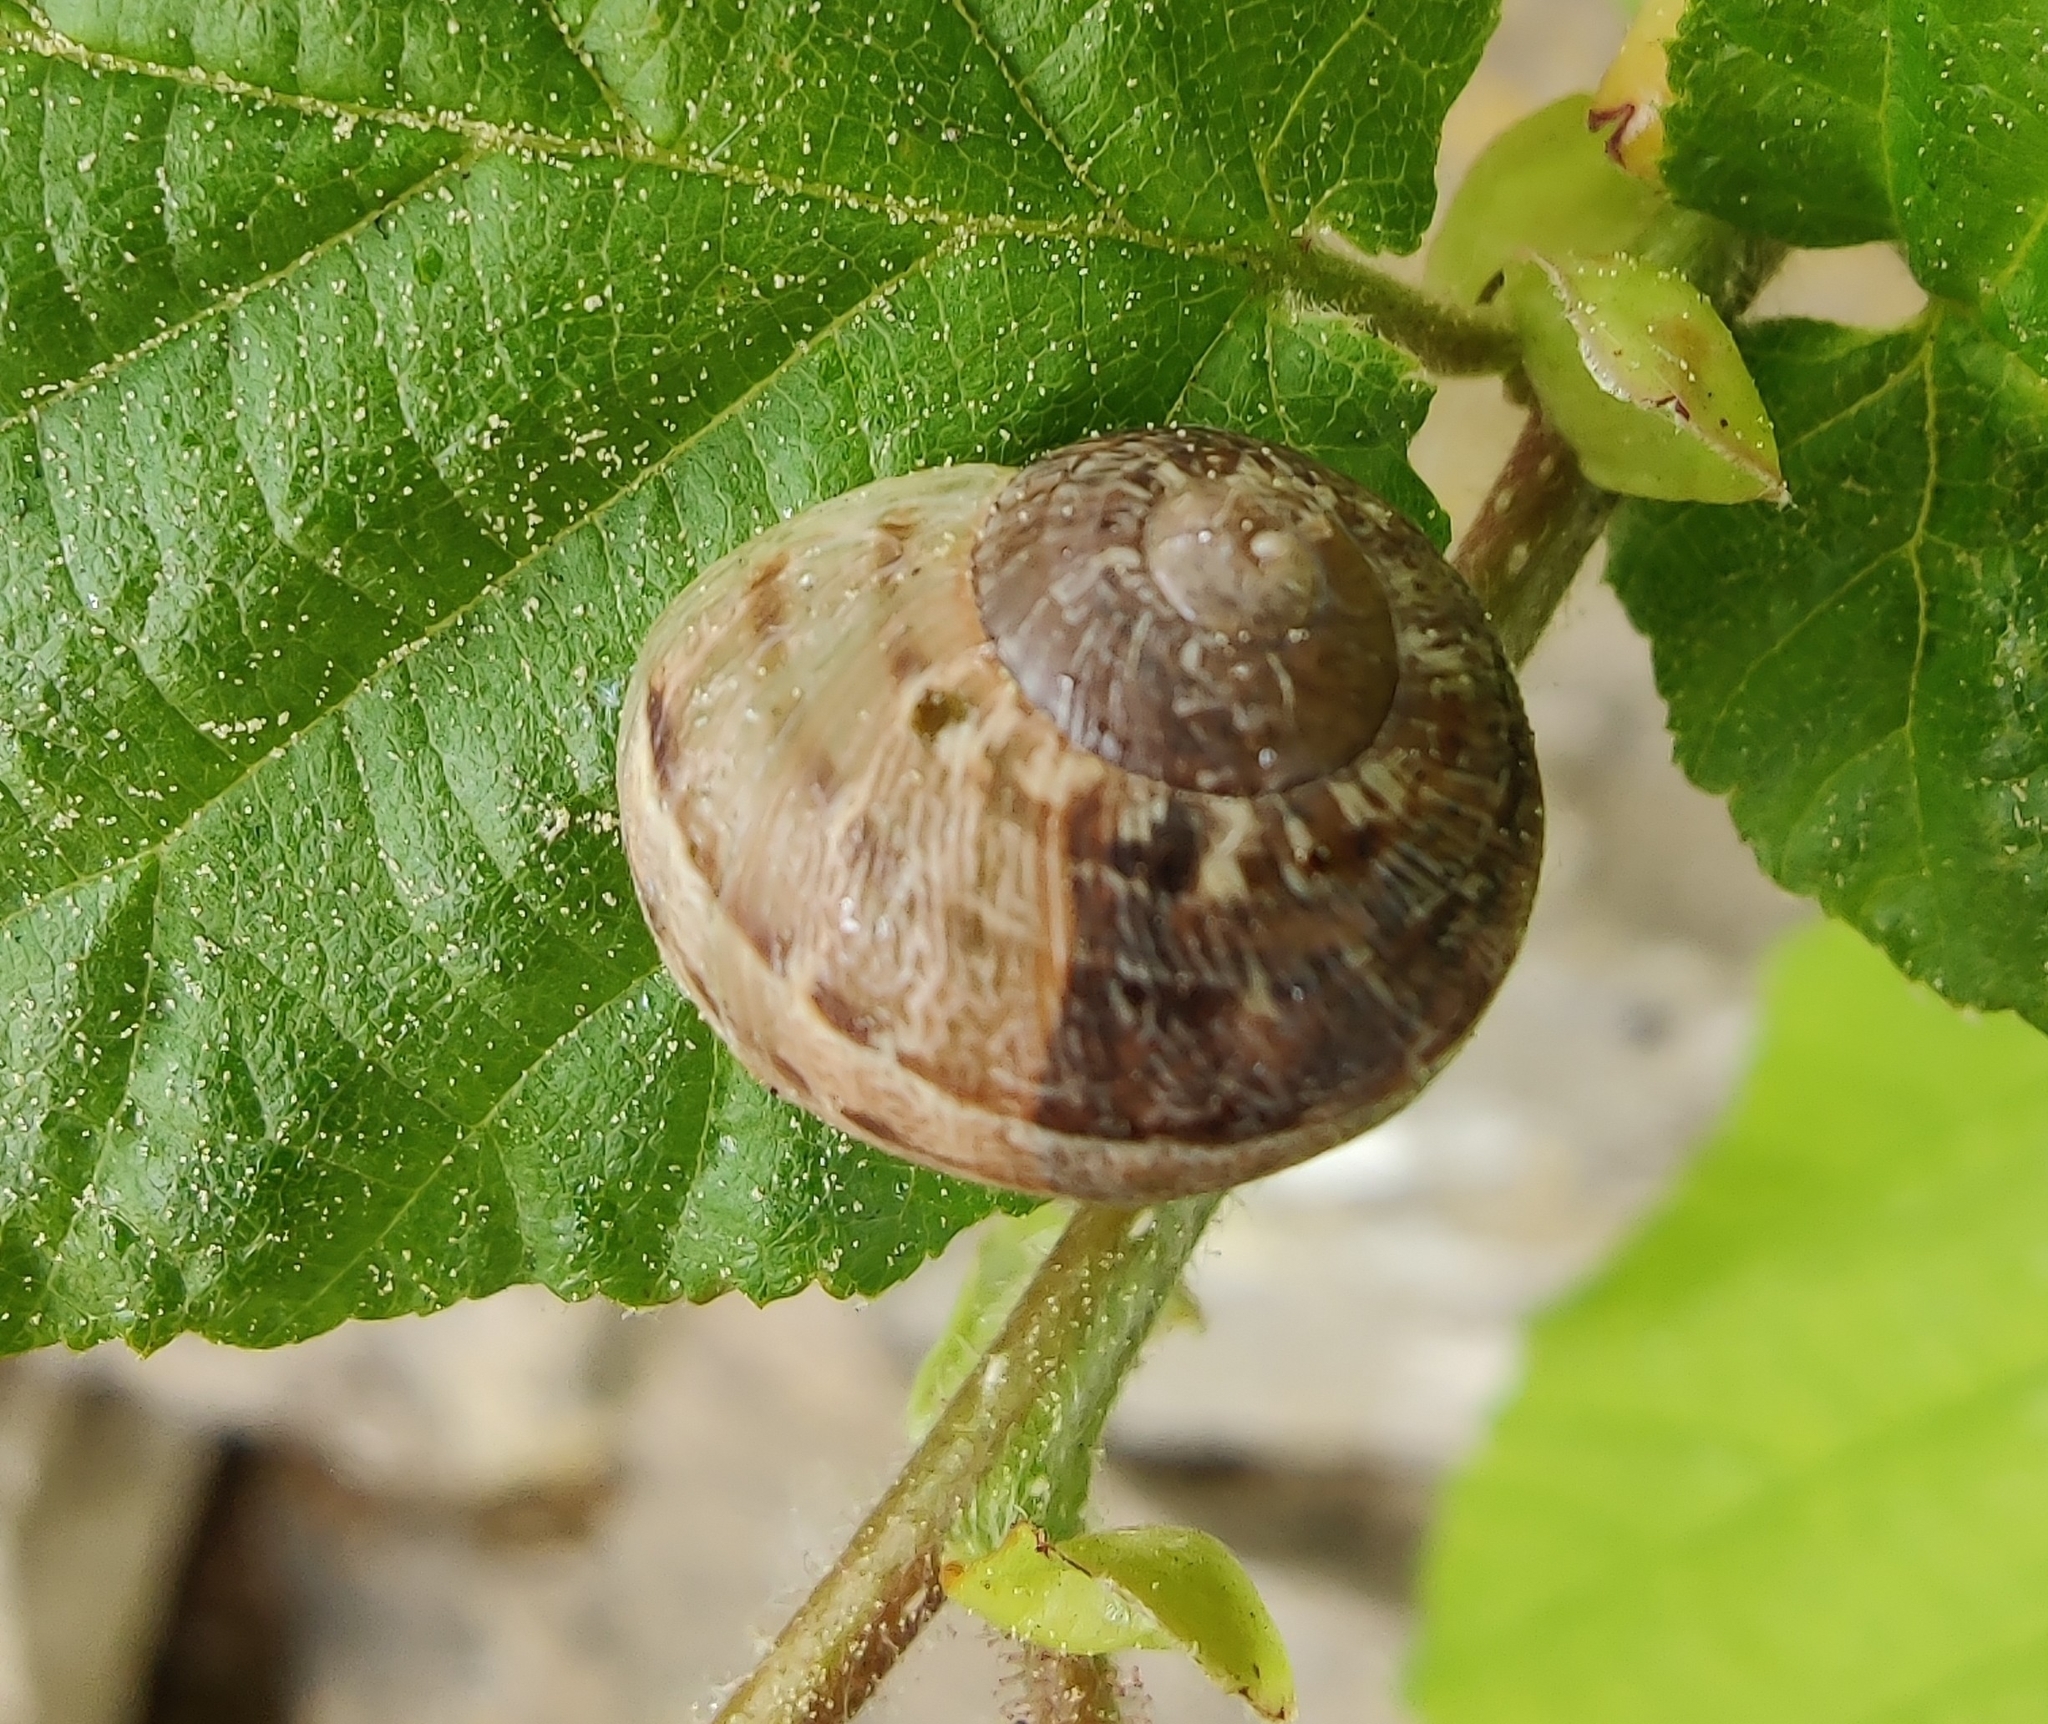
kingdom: Animalia
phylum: Mollusca
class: Gastropoda
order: Stylommatophora
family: Helicidae
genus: Cornu
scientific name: Cornu aspersum
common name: Brown garden snail
